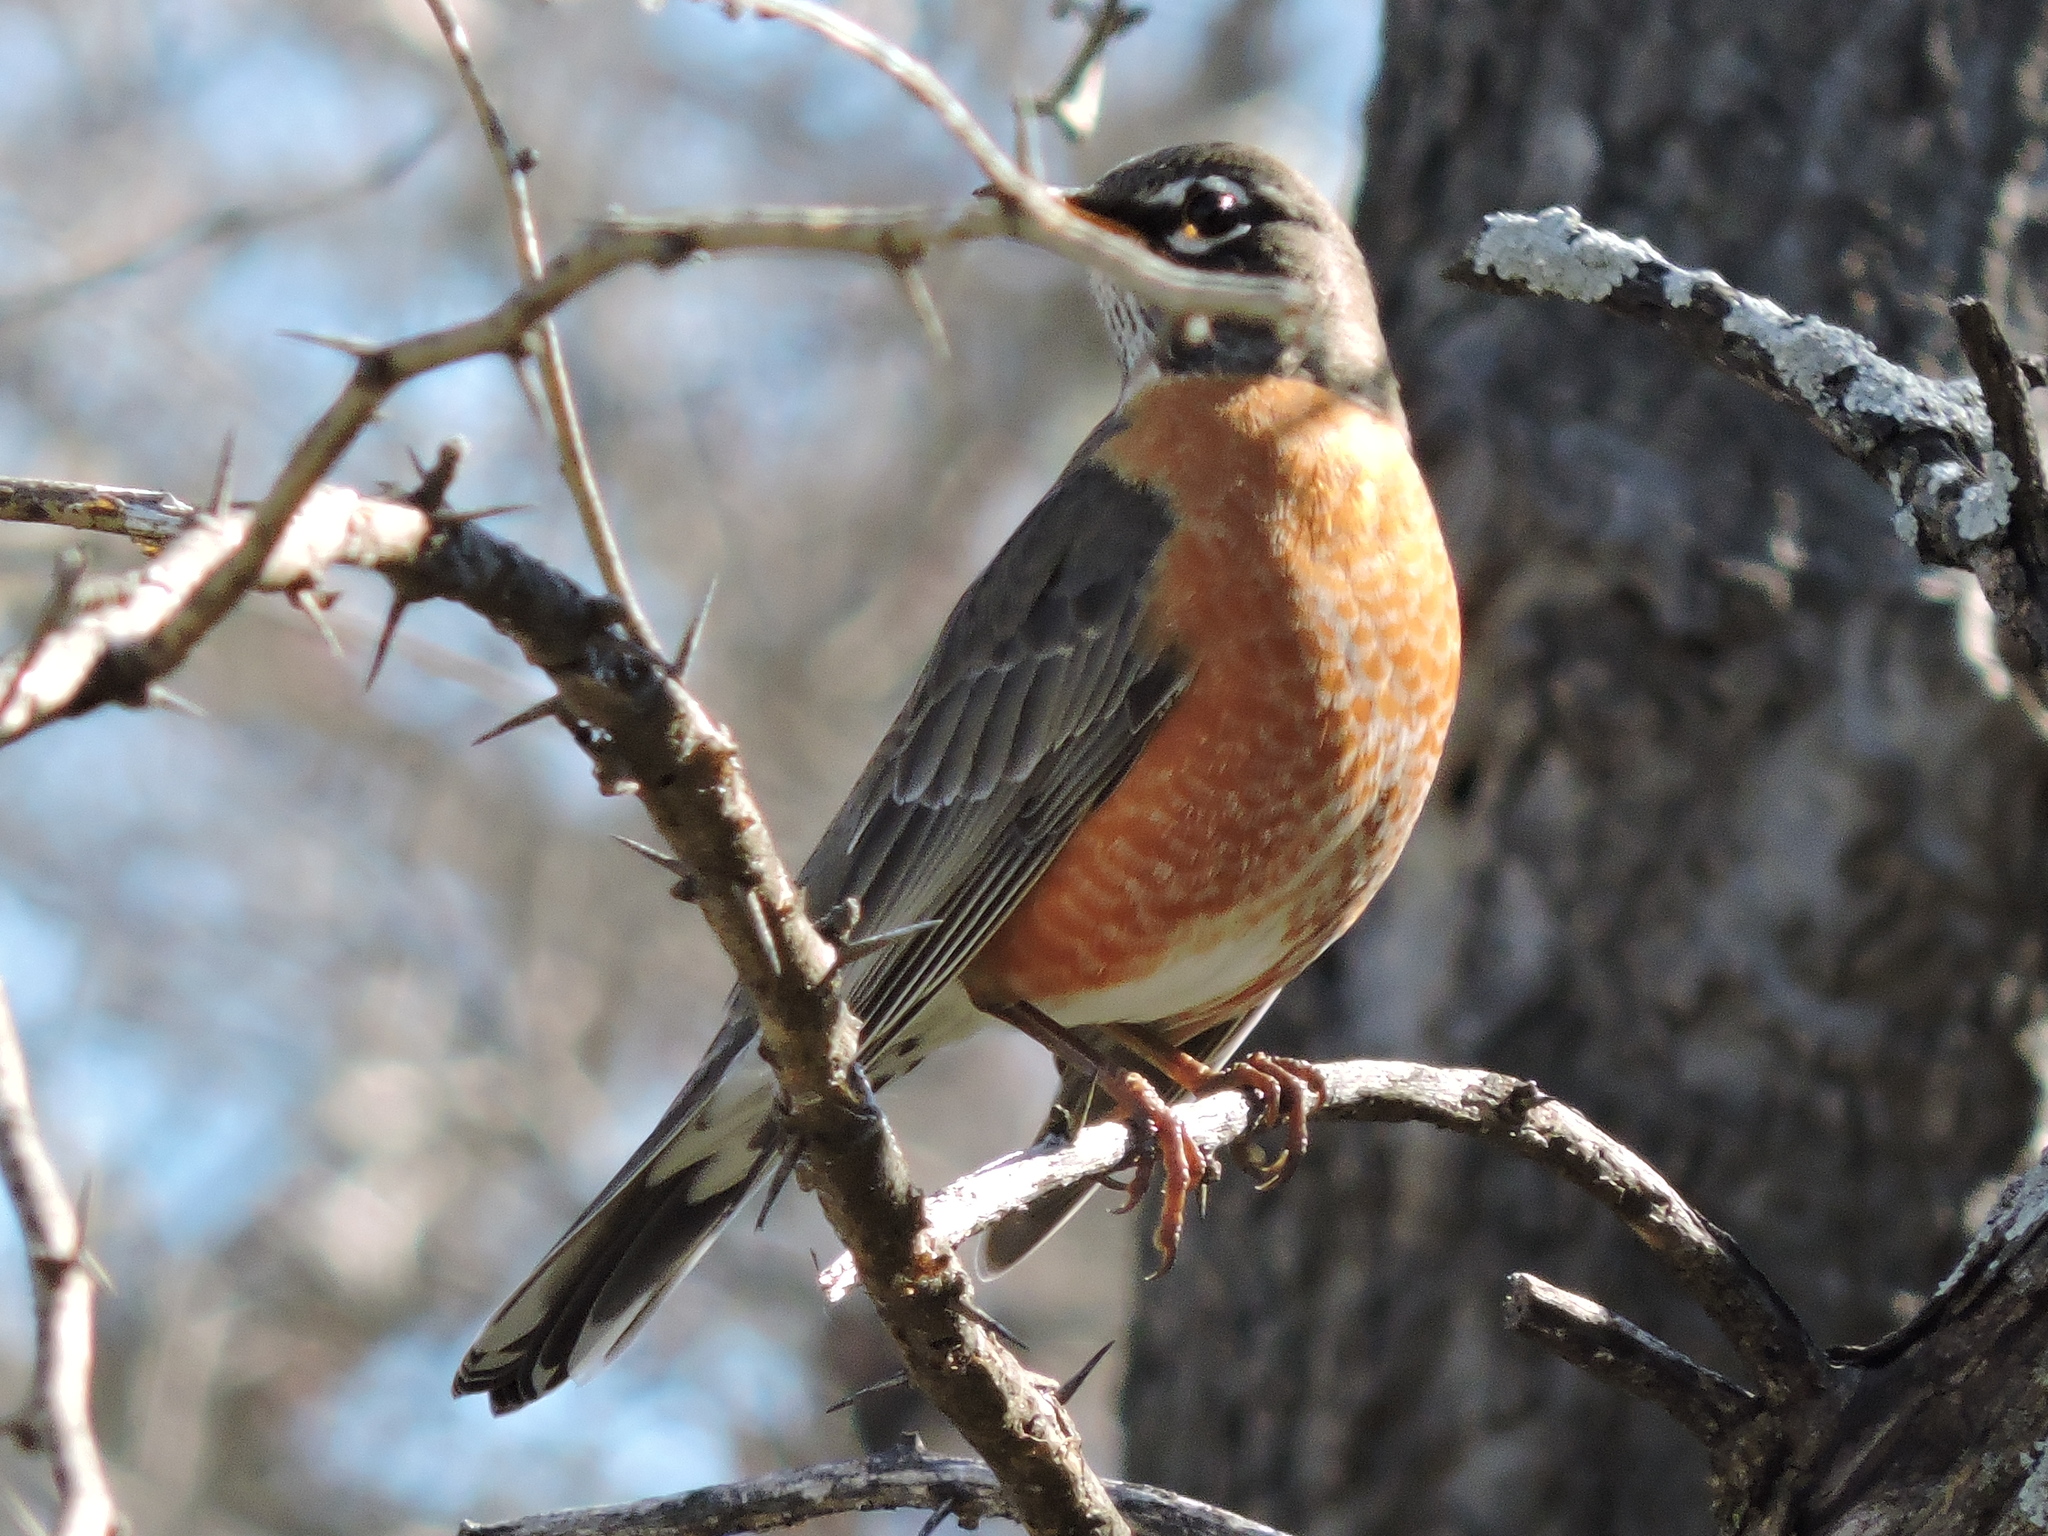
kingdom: Animalia
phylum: Chordata
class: Aves
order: Passeriformes
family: Turdidae
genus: Turdus
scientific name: Turdus migratorius
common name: American robin
